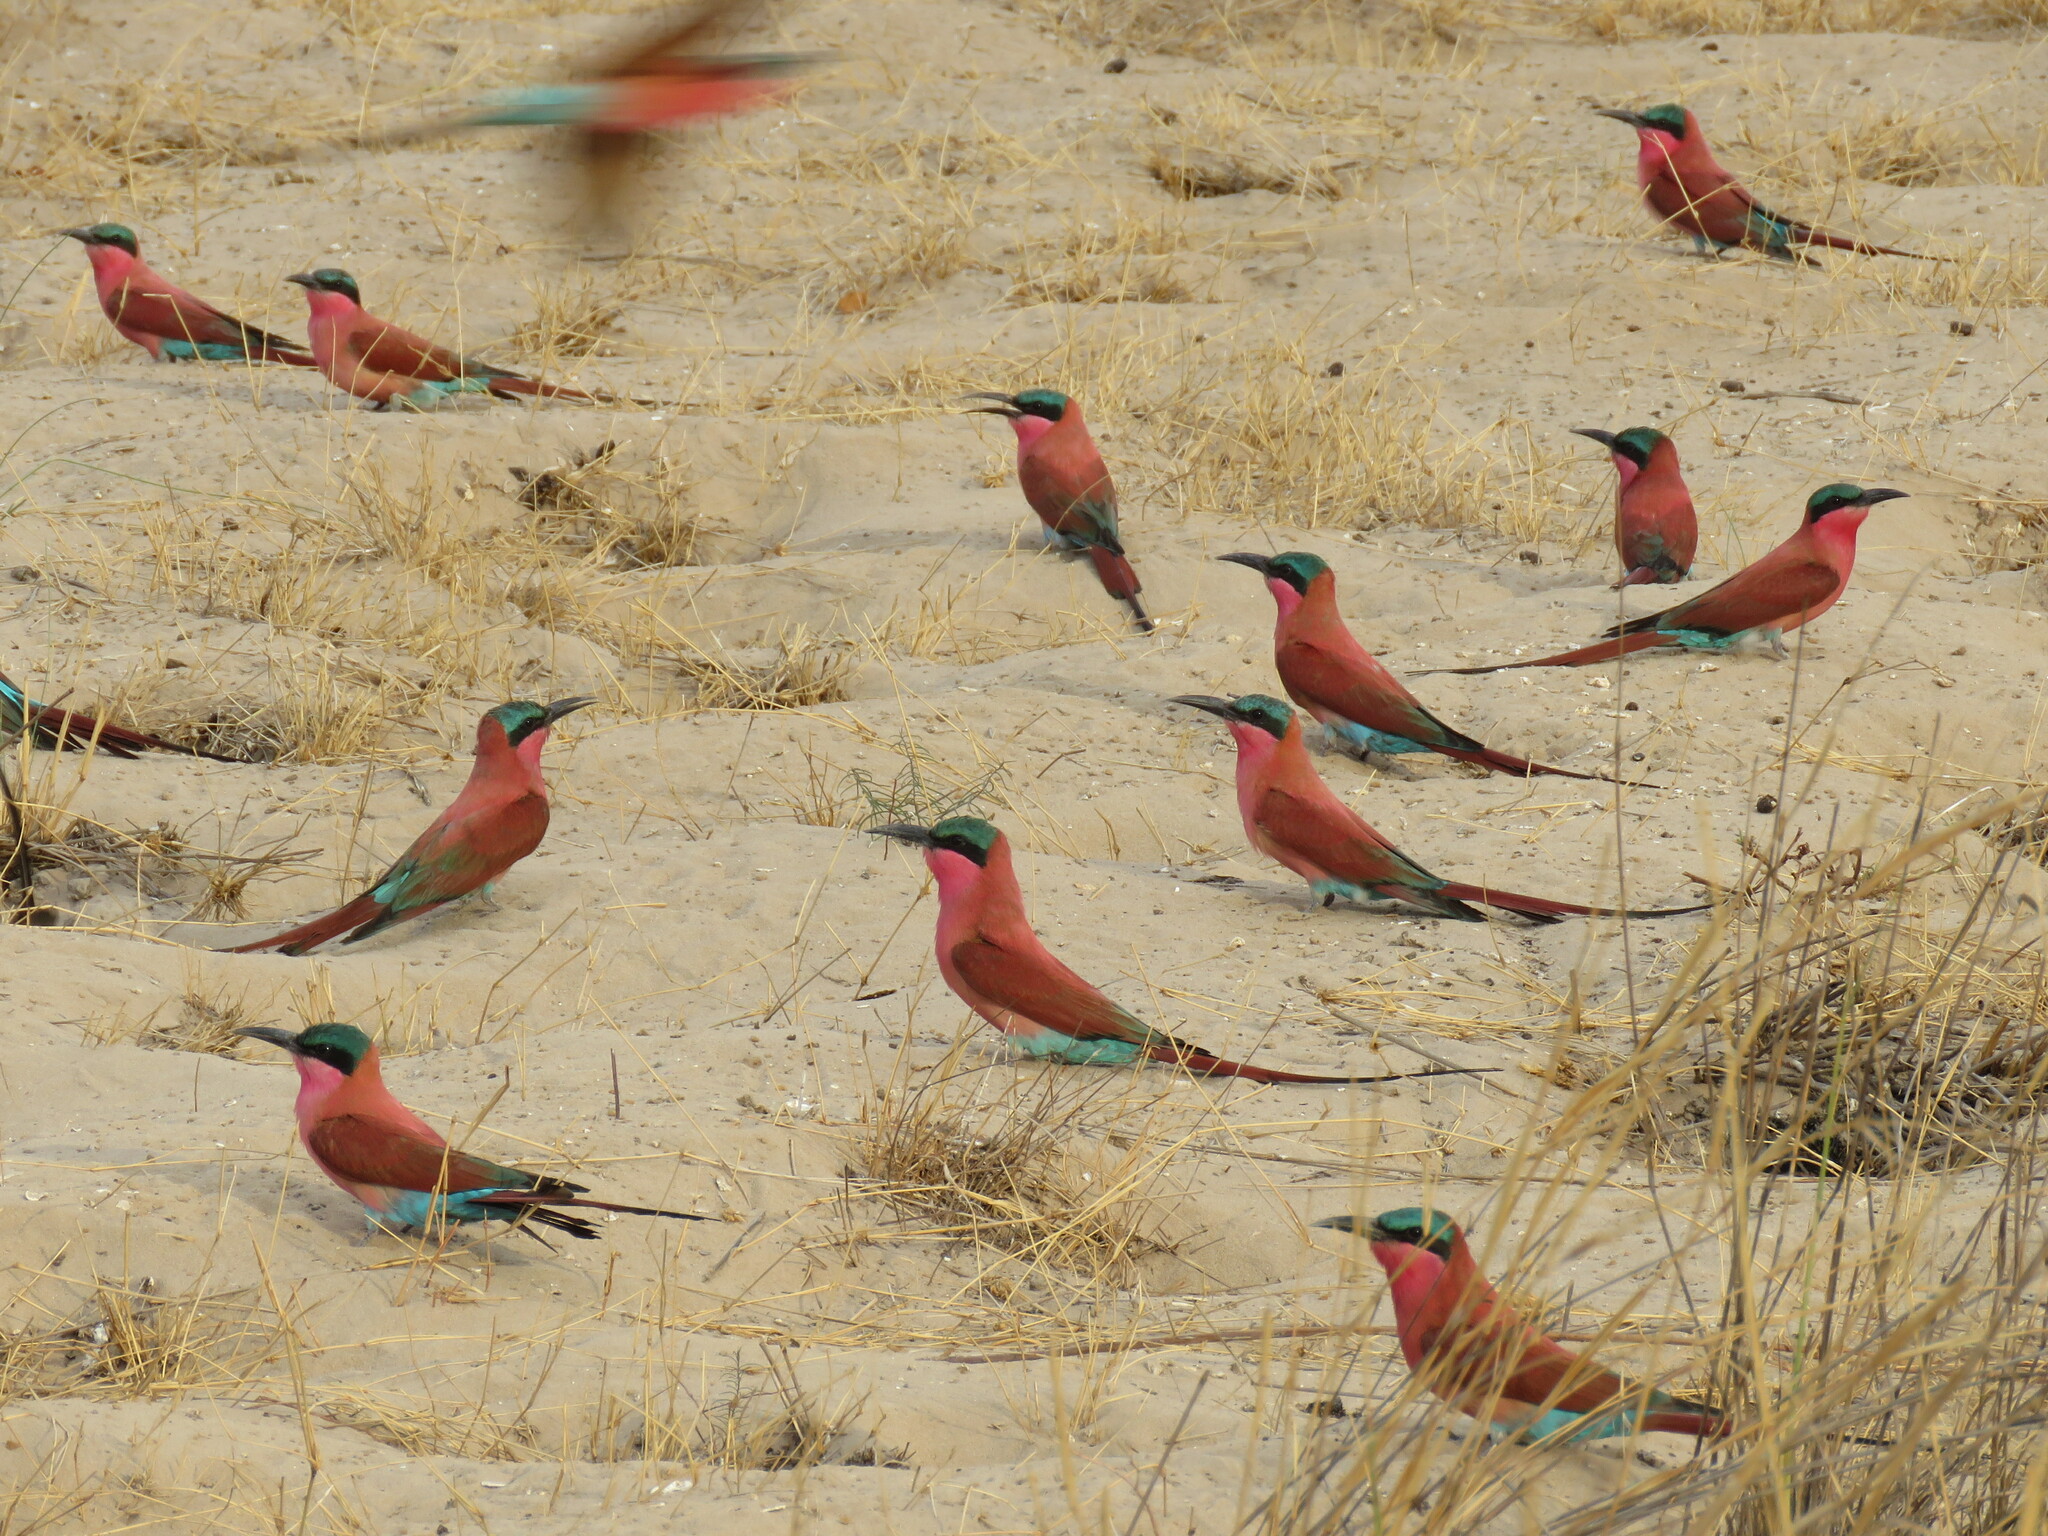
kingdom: Animalia
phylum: Chordata
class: Aves
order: Coraciiformes
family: Meropidae
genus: Merops
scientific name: Merops nubicoides
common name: Southern carmine bee-eater
